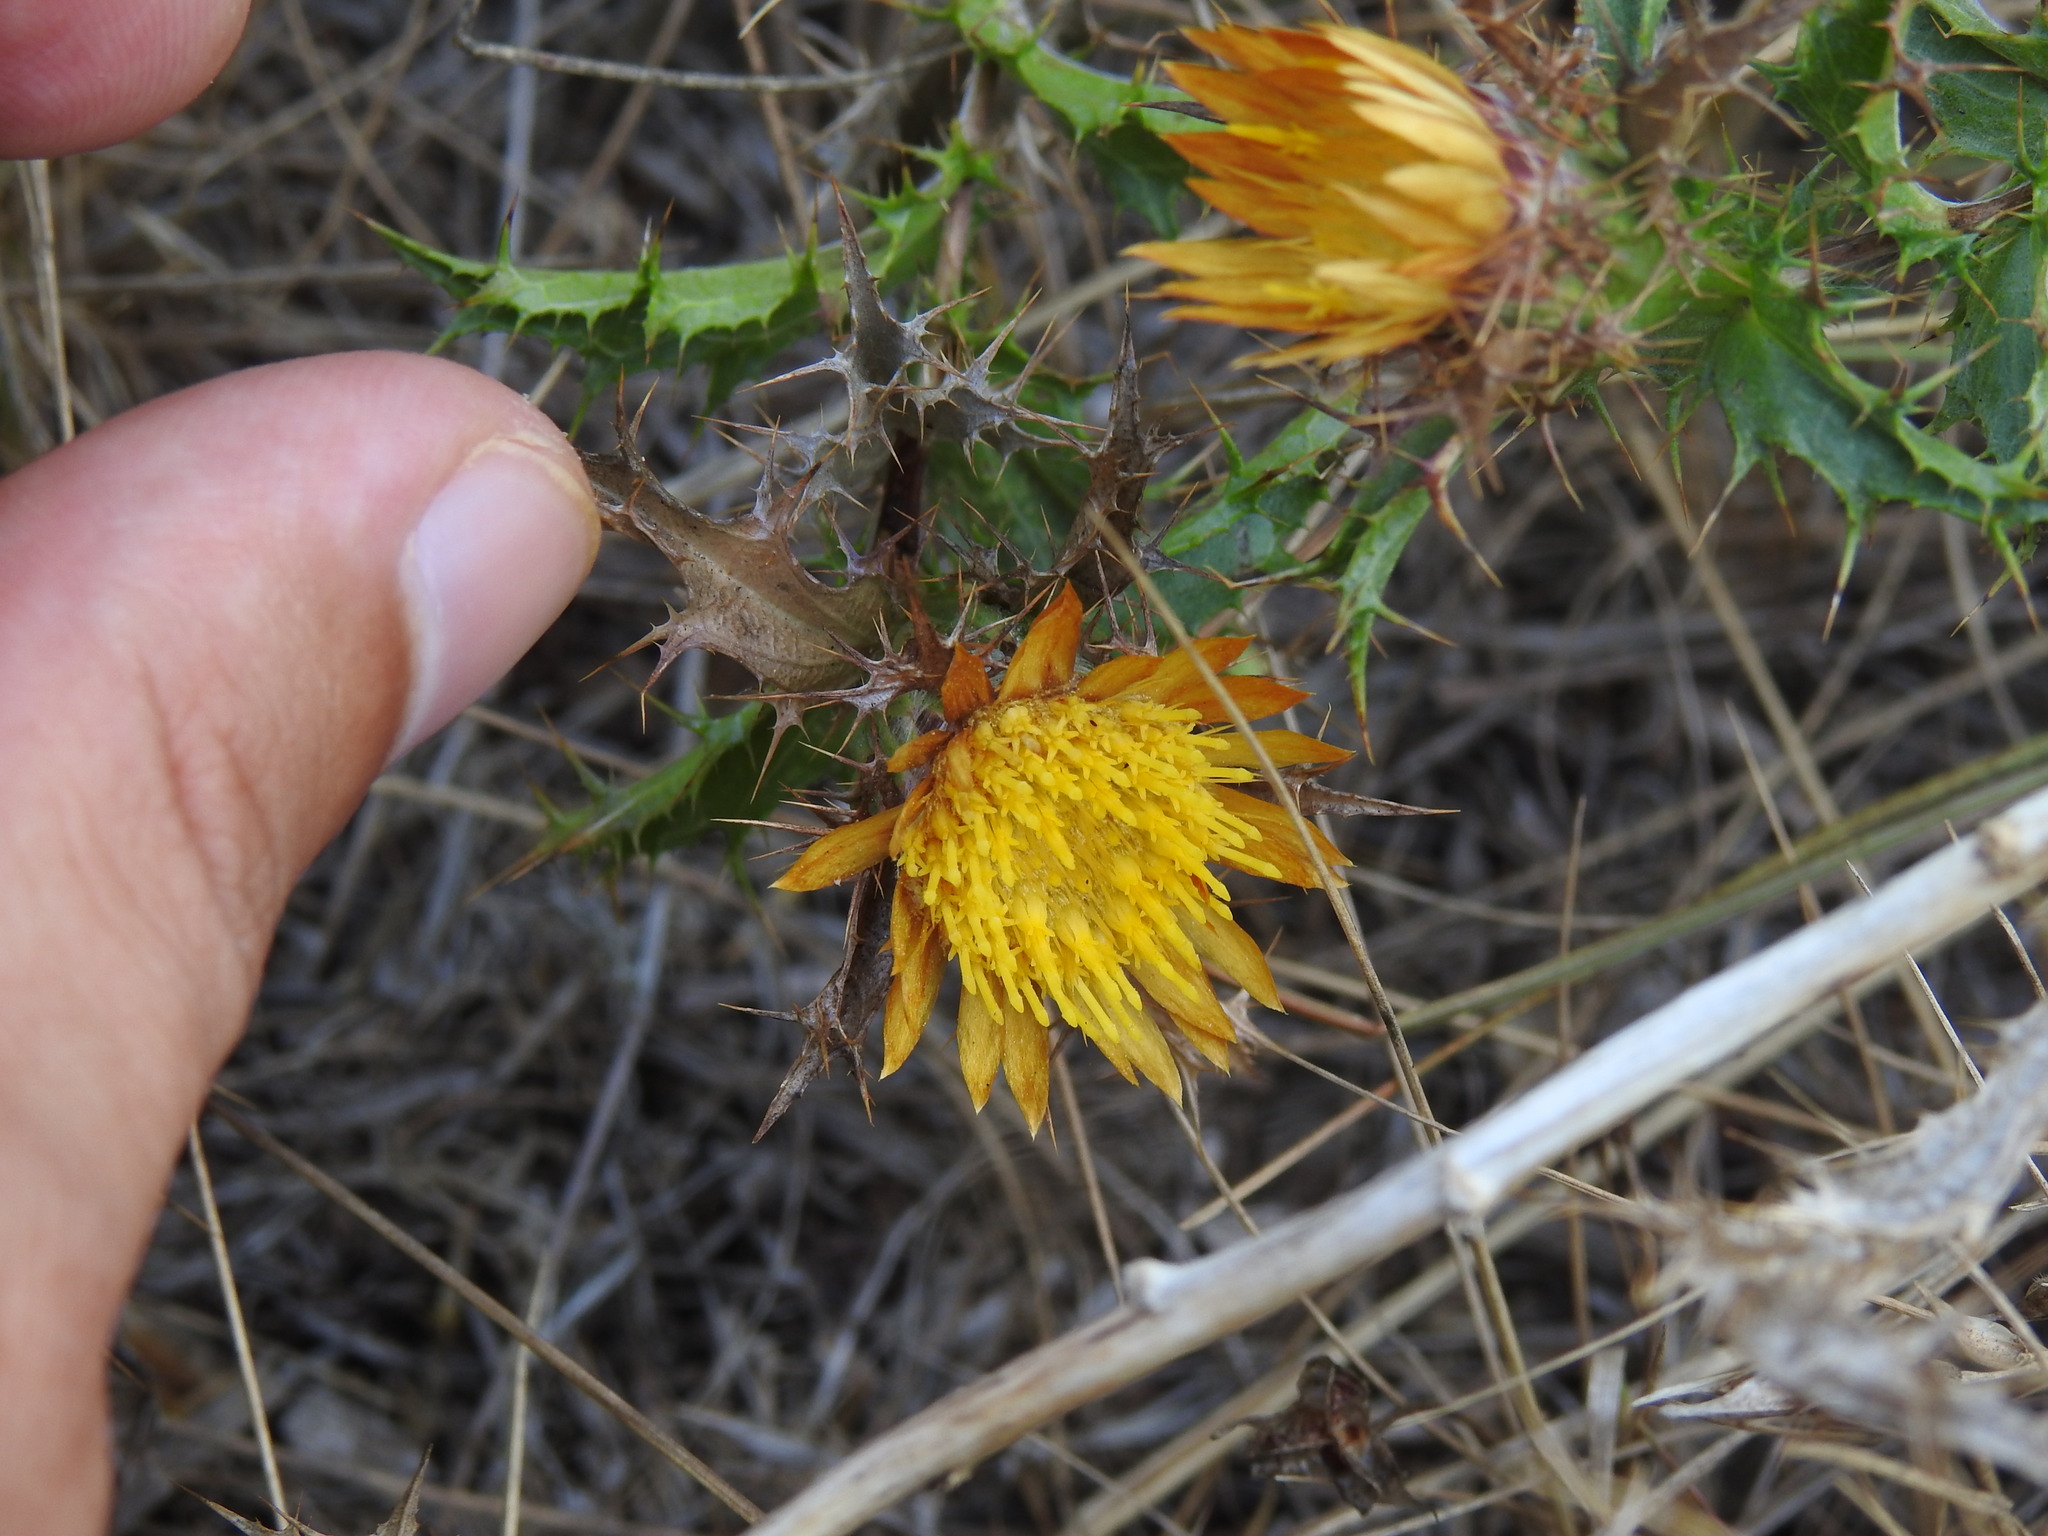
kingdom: Plantae
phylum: Tracheophyta
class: Magnoliopsida
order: Asterales
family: Asteraceae
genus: Carlina
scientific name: Carlina hispanica
